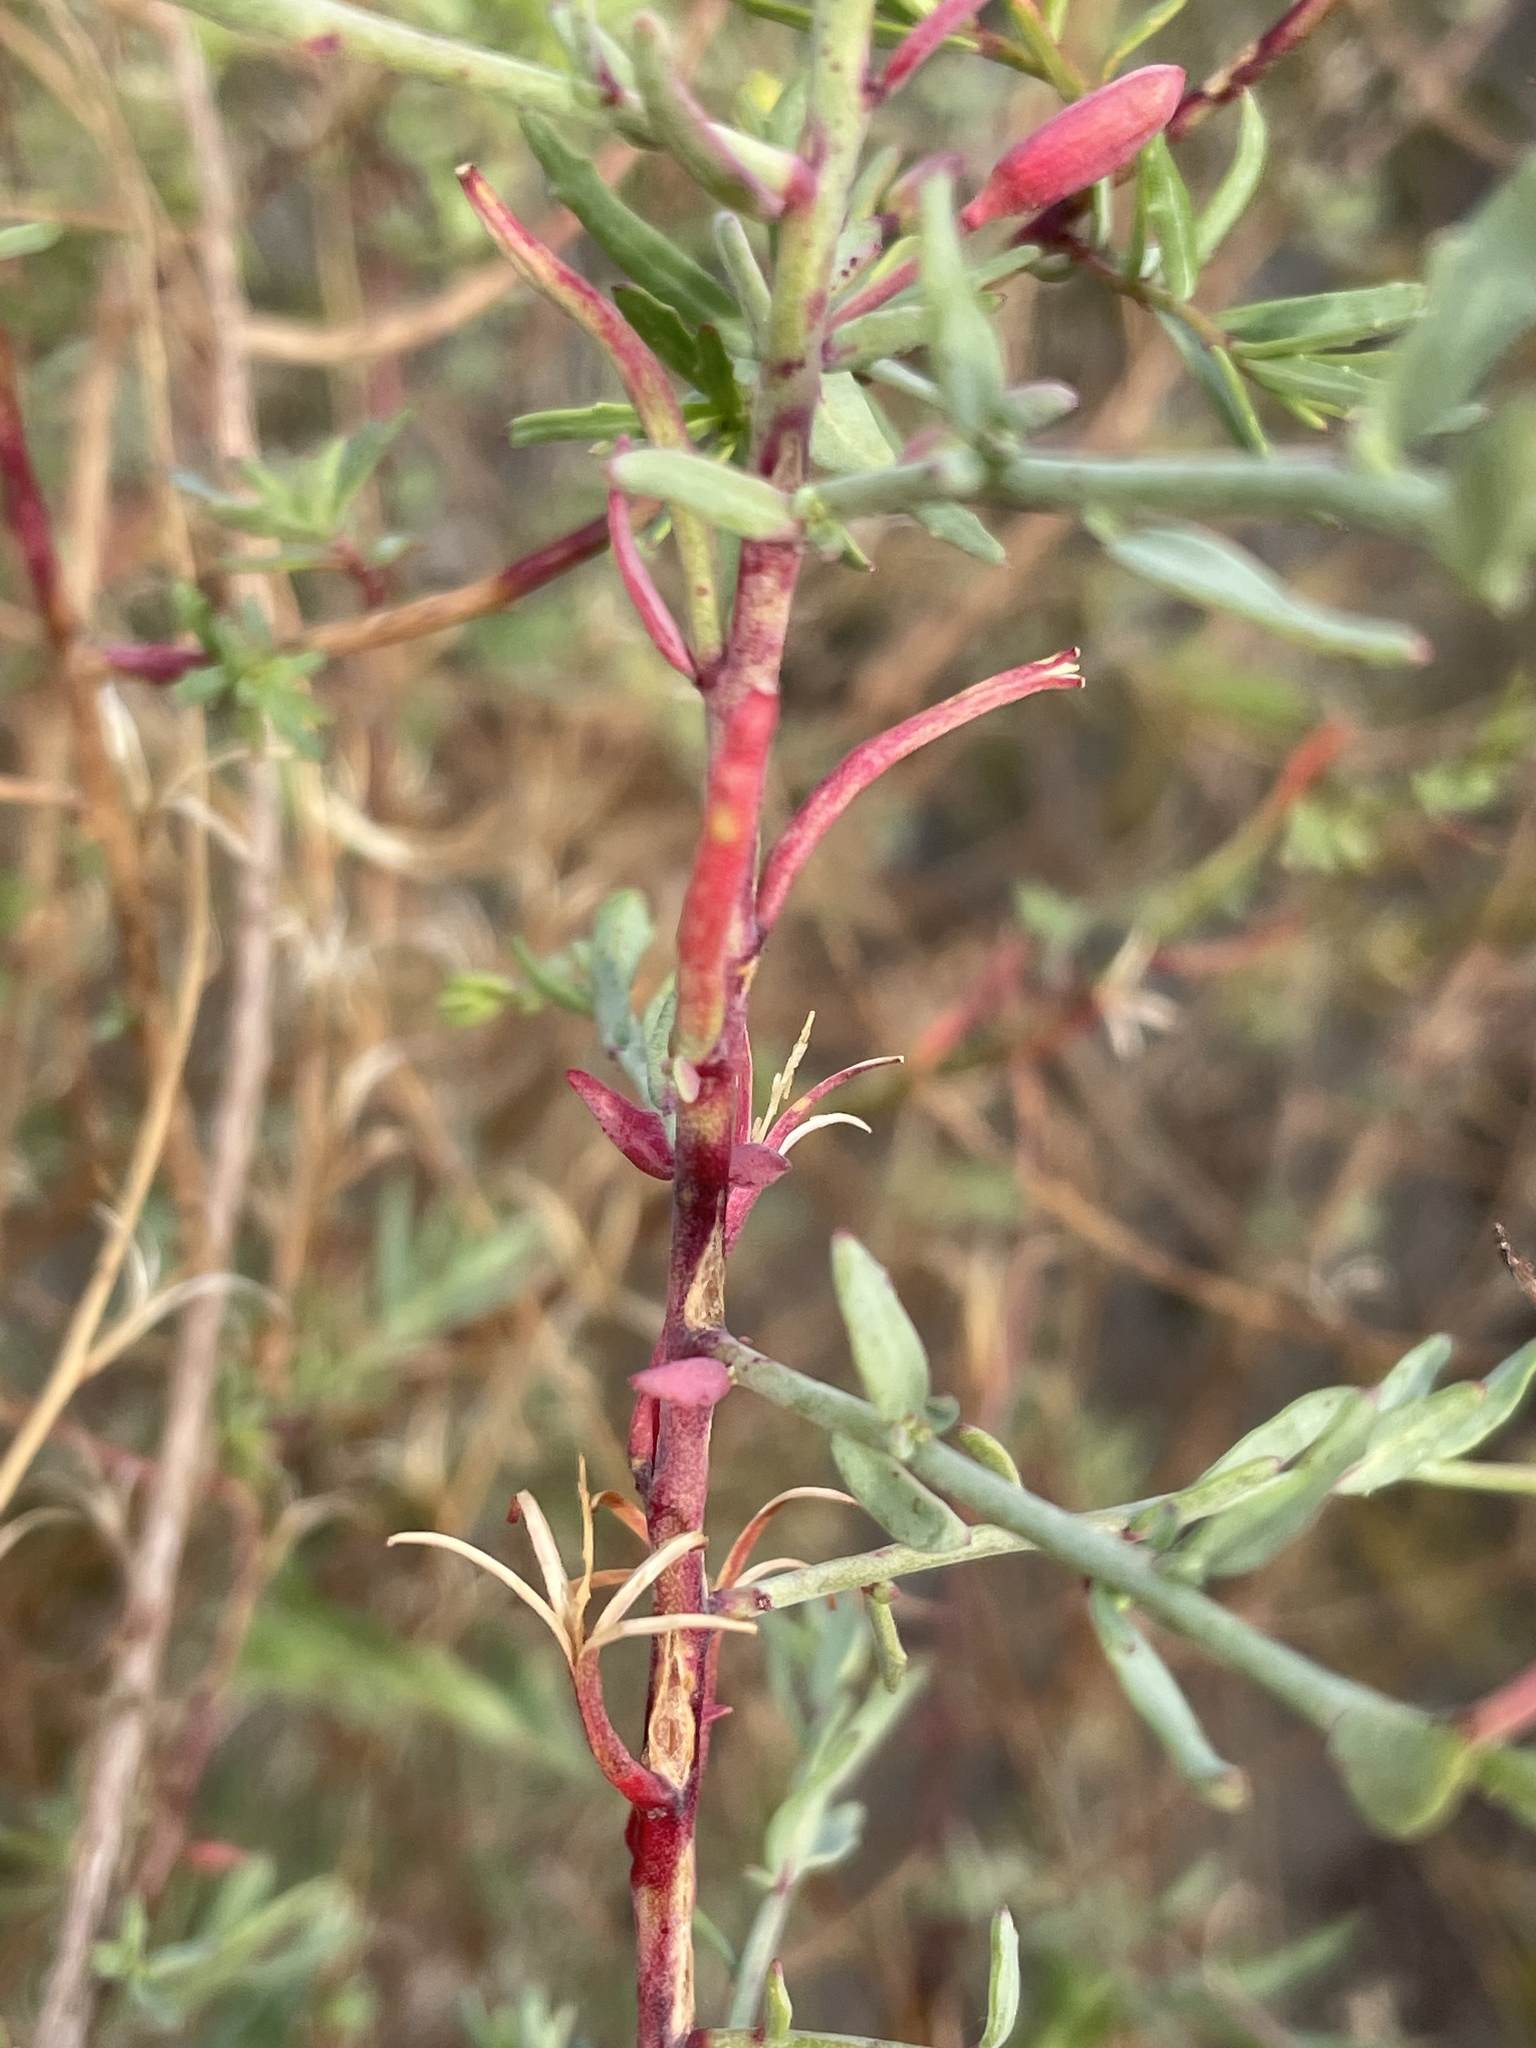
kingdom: Plantae
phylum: Tracheophyta
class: Magnoliopsida
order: Myrtales
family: Onagraceae
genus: Eulobus
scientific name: Eulobus crassifolius
